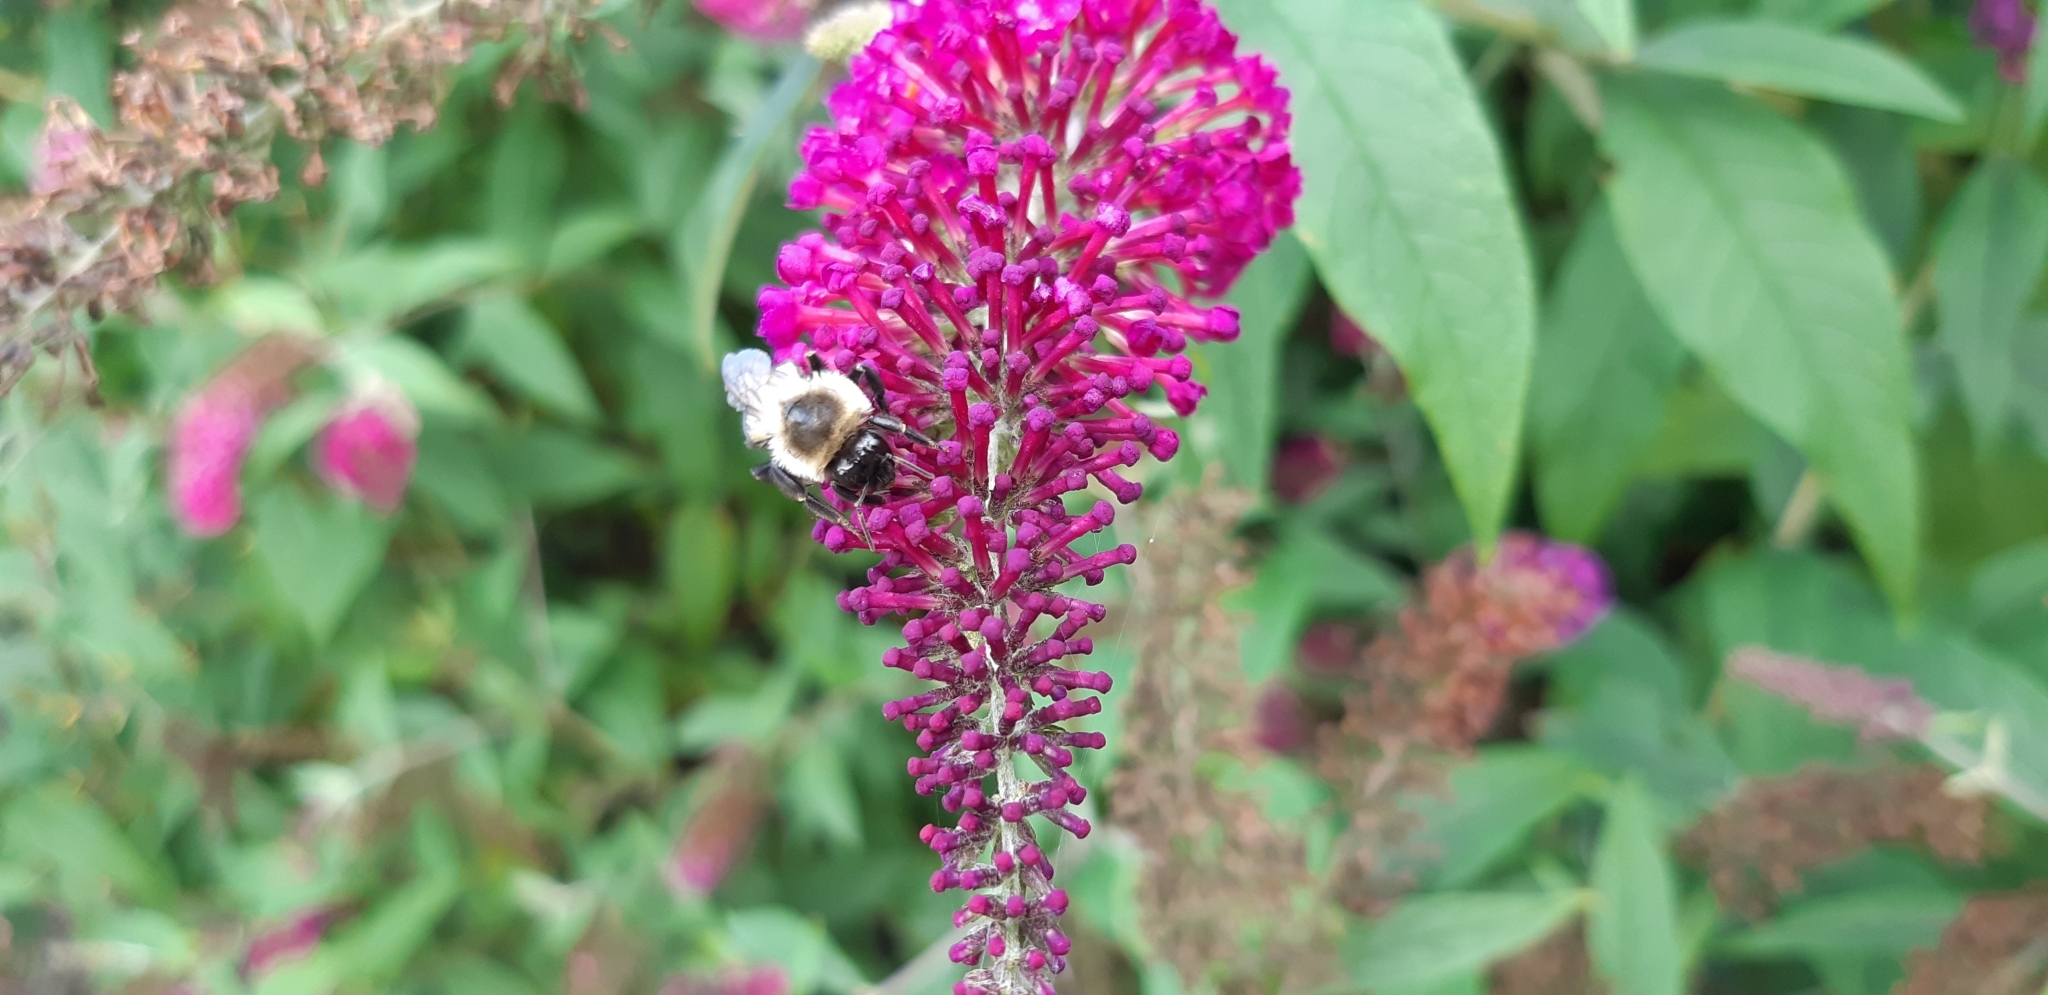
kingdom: Animalia
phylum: Arthropoda
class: Insecta
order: Hymenoptera
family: Apidae
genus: Bombus
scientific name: Bombus impatiens
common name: Common eastern bumble bee
